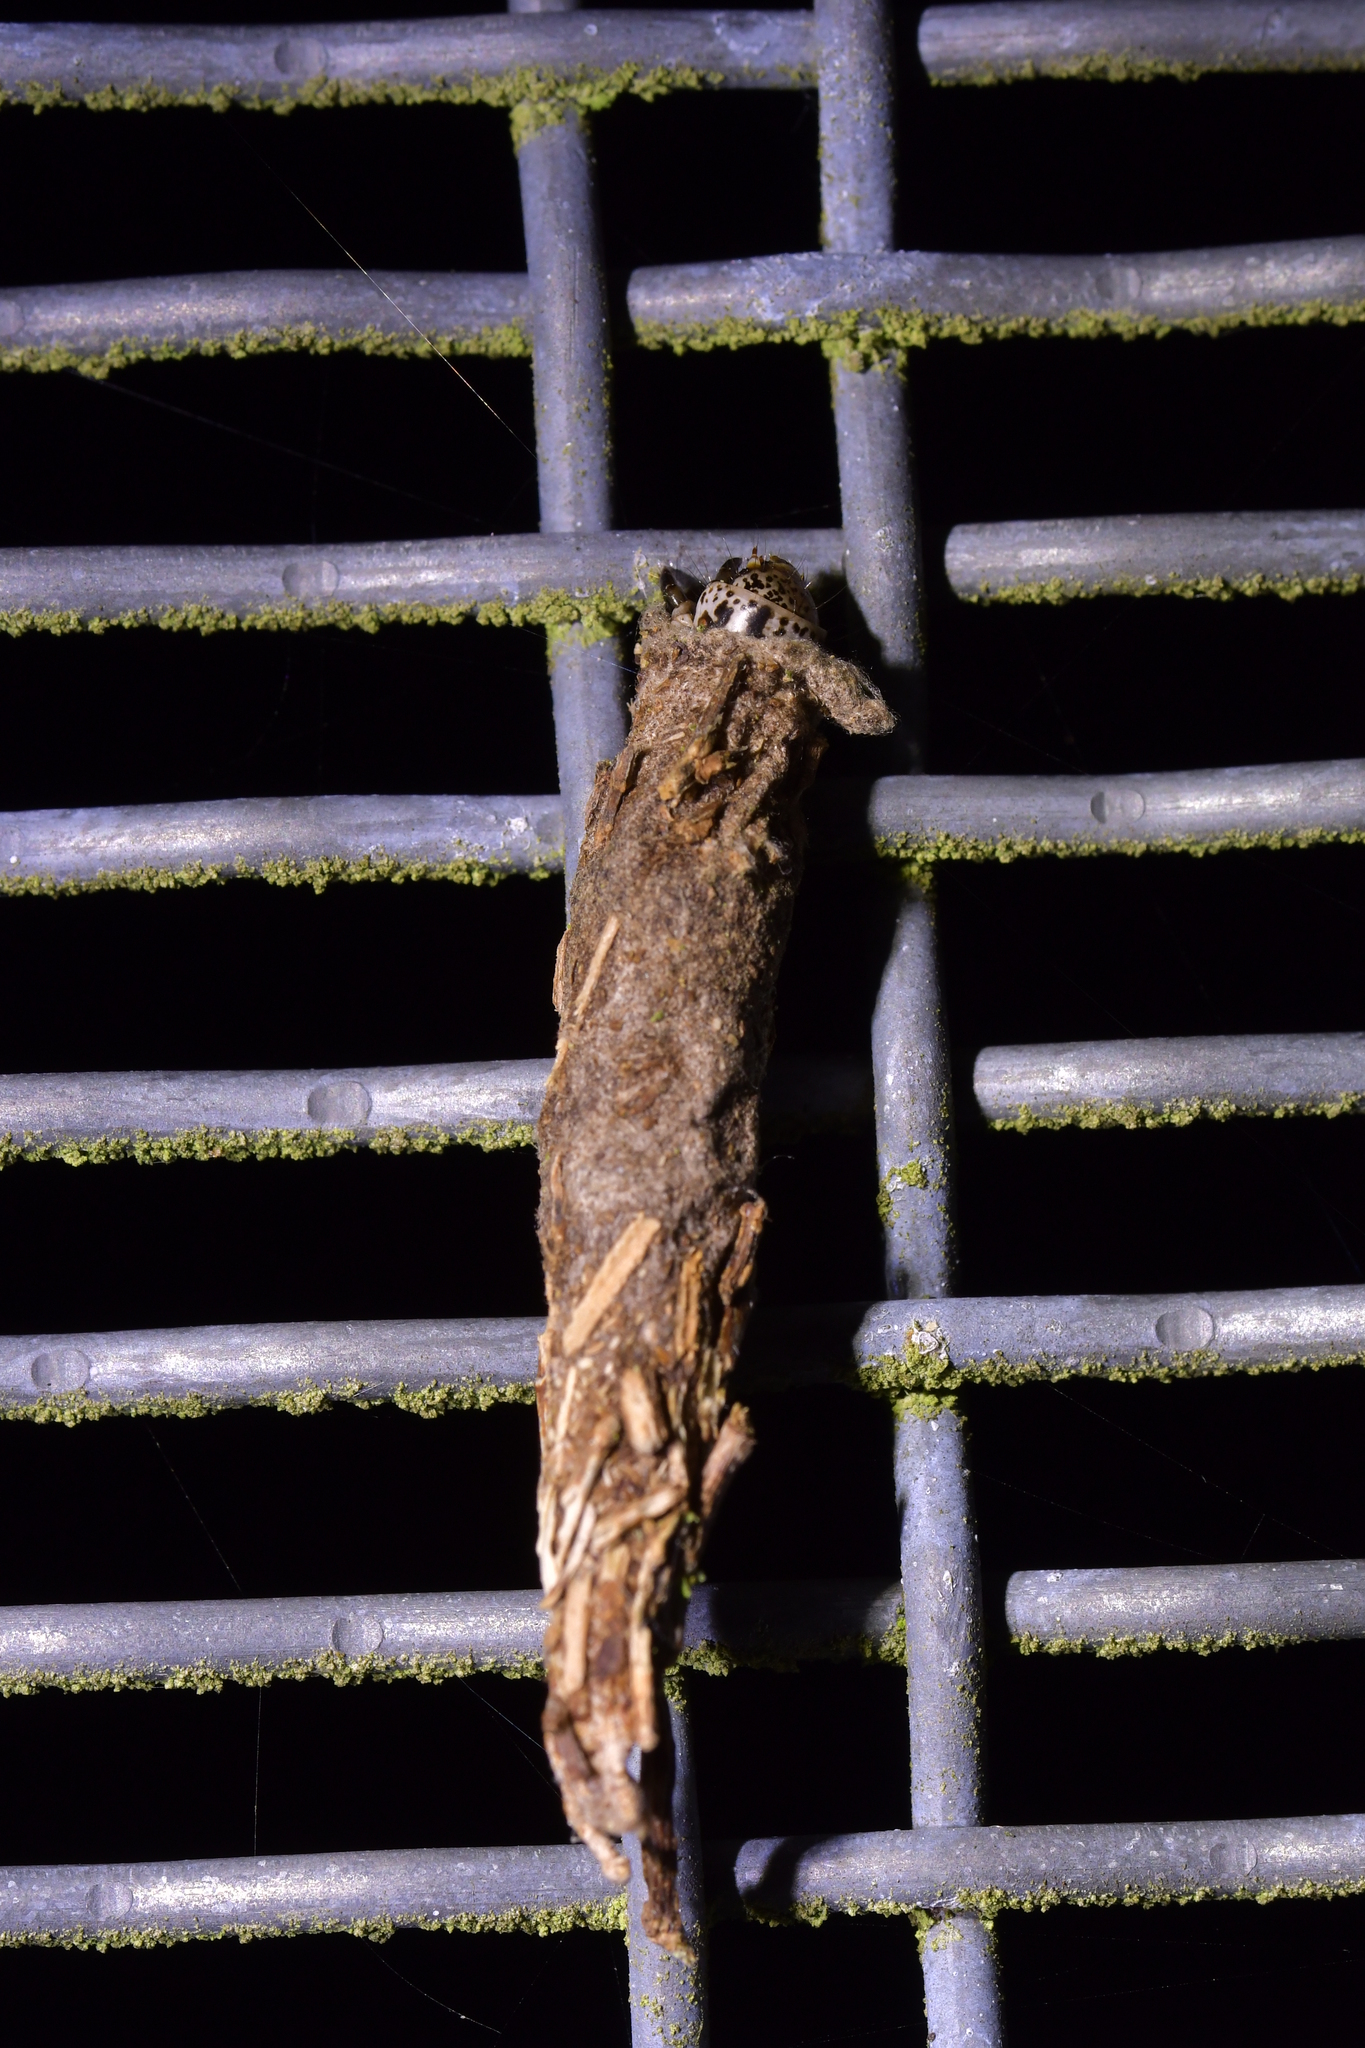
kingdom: Animalia
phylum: Arthropoda
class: Insecta
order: Lepidoptera
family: Psychidae
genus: Liothula
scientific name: Liothula omnivora
